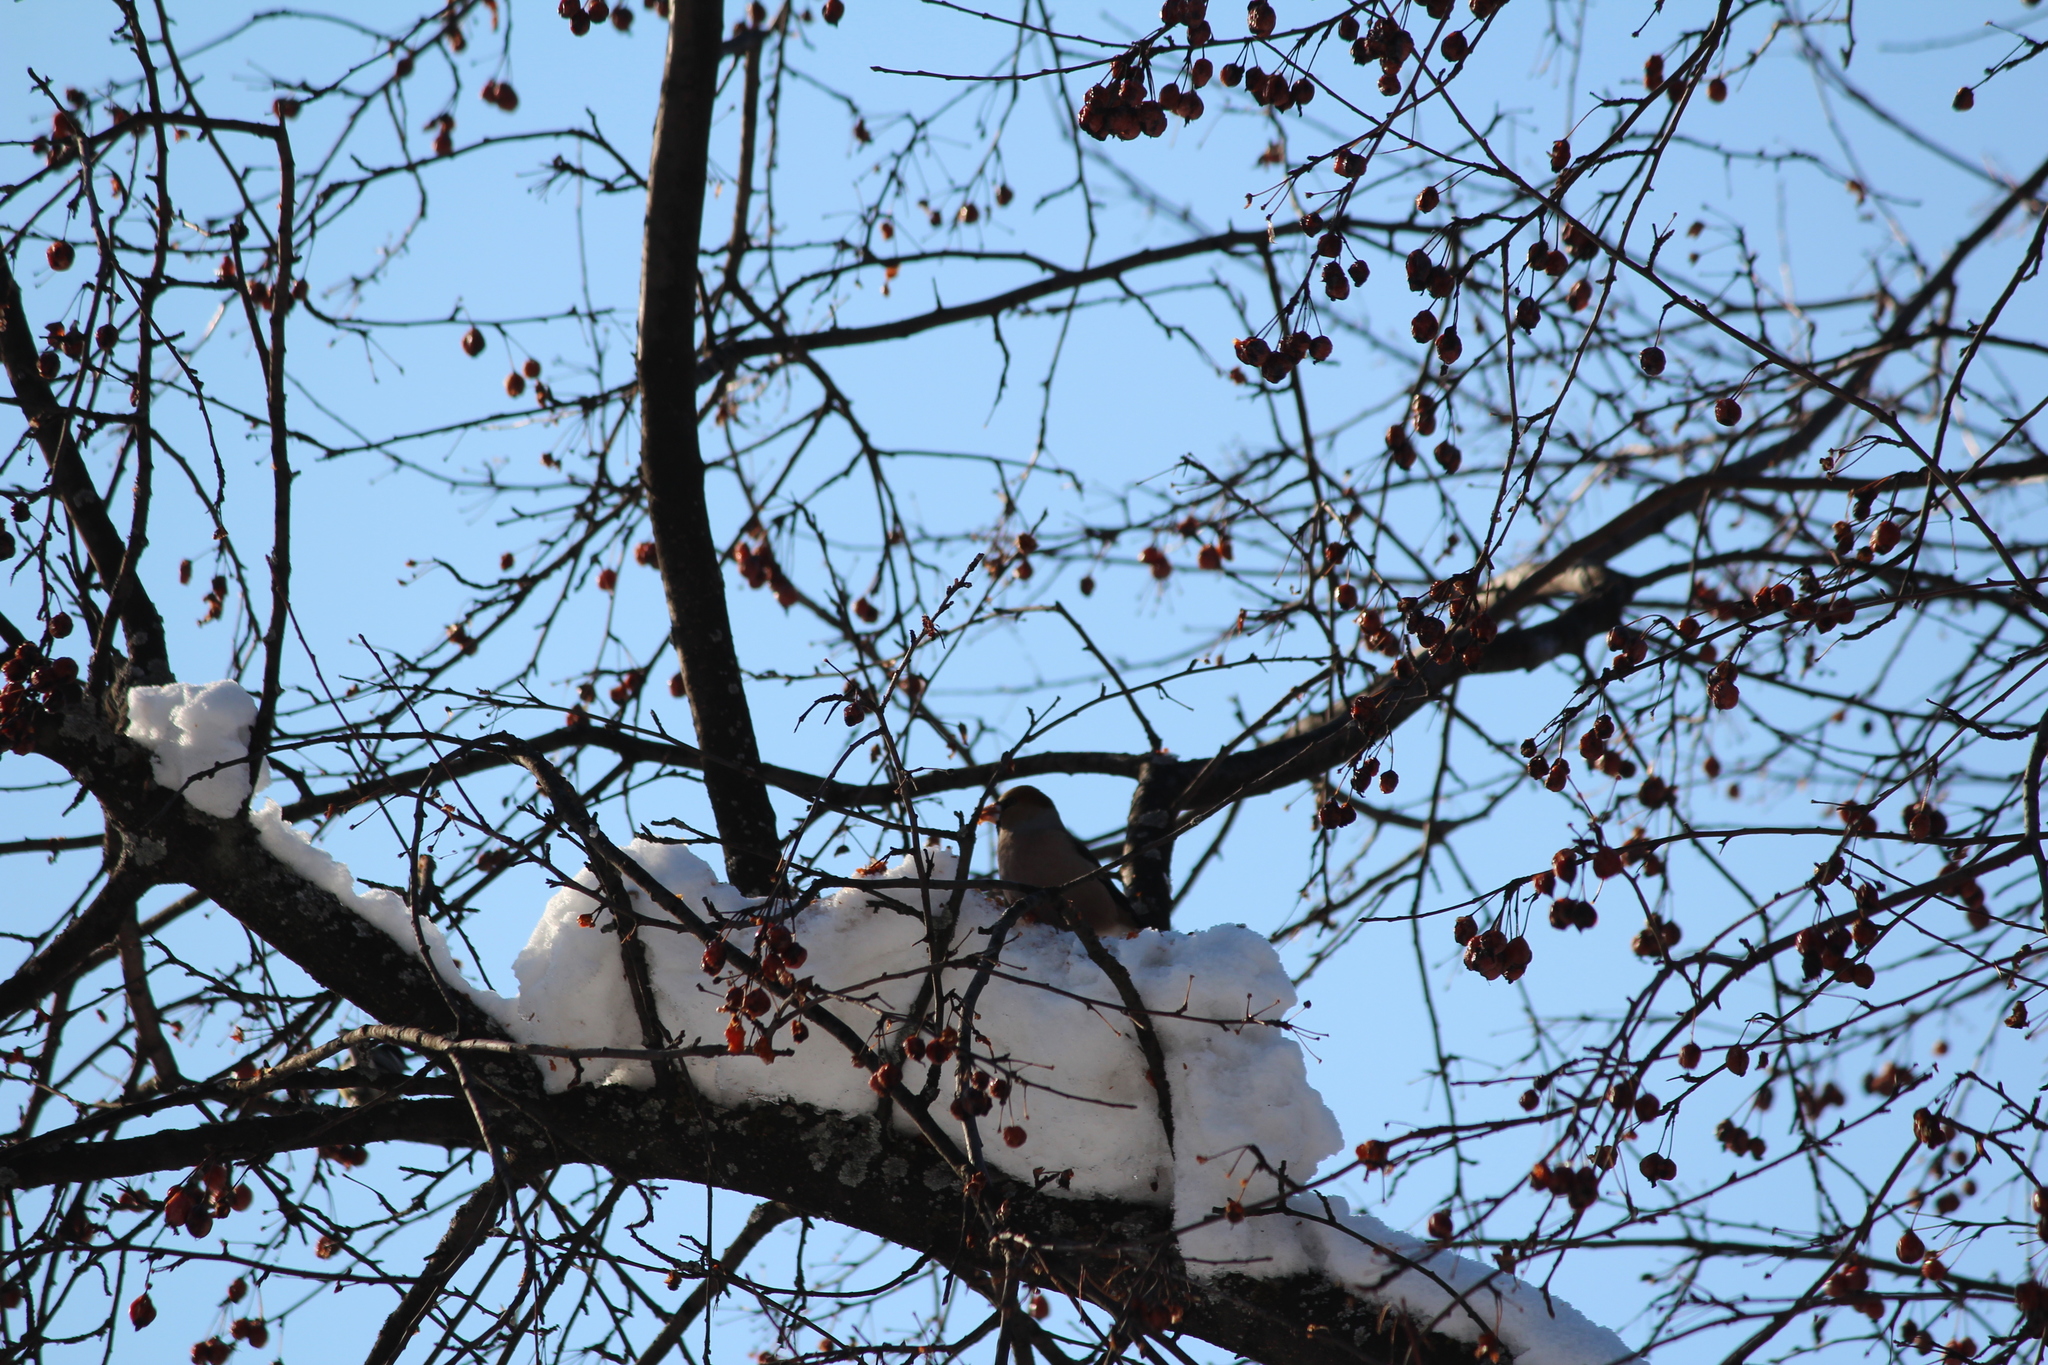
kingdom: Animalia
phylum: Chordata
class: Aves
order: Passeriformes
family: Fringillidae
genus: Coccothraustes
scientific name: Coccothraustes coccothraustes
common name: Hawfinch
